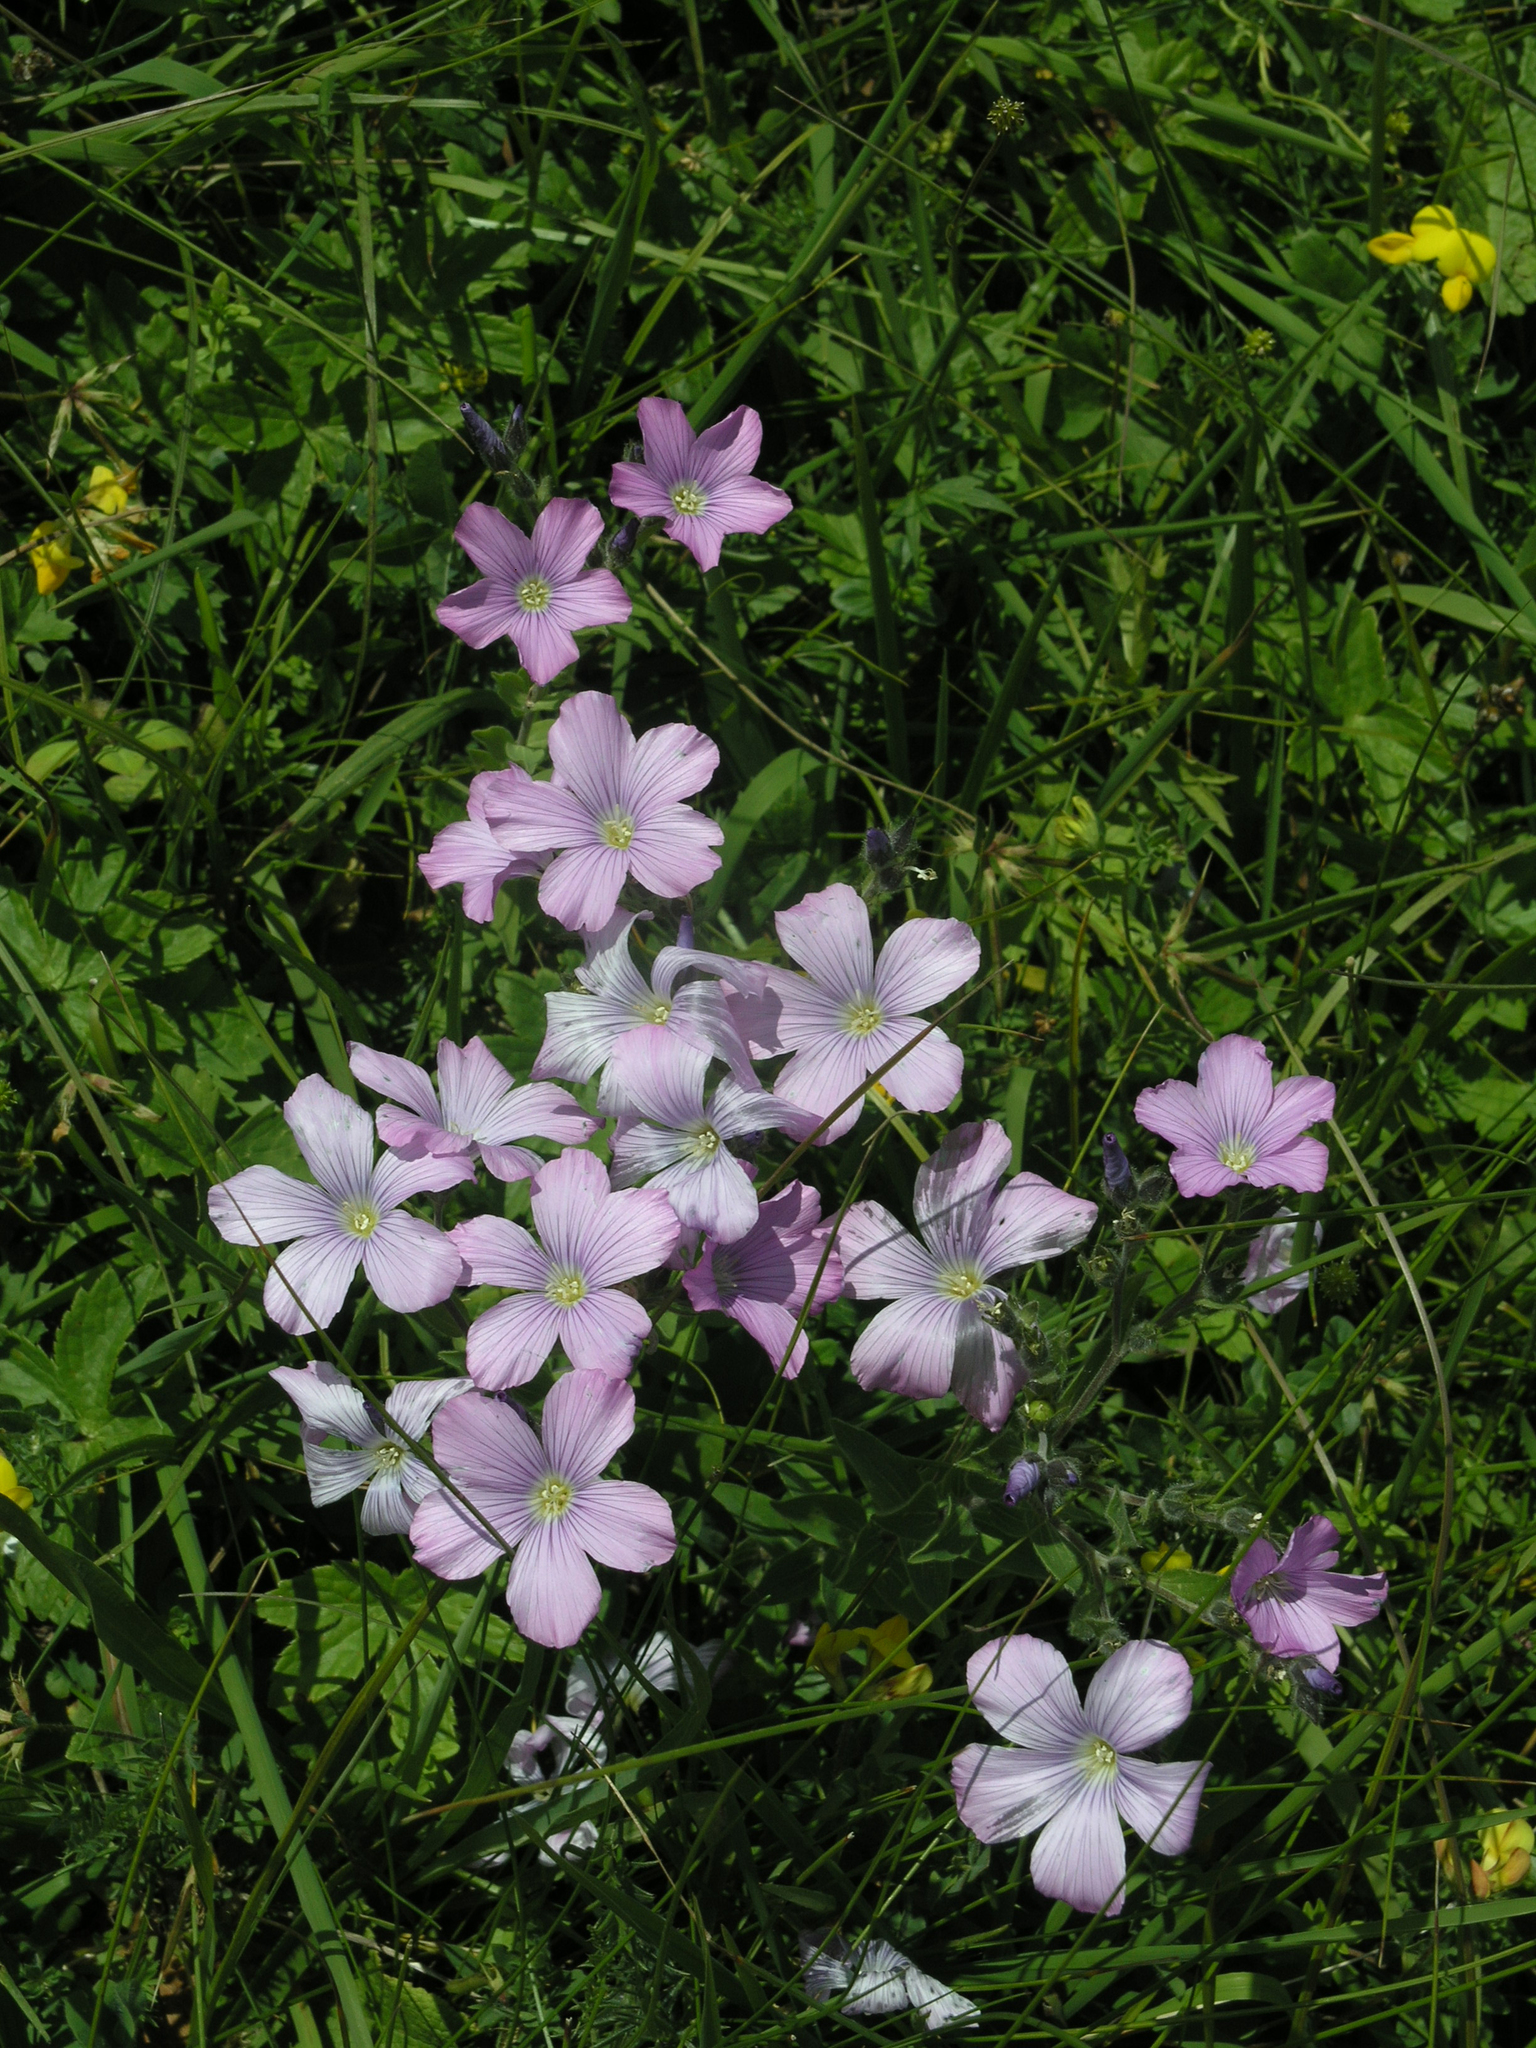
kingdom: Plantae
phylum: Tracheophyta
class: Magnoliopsida
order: Malpighiales
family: Linaceae
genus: Linum
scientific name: Linum hypericifolium
